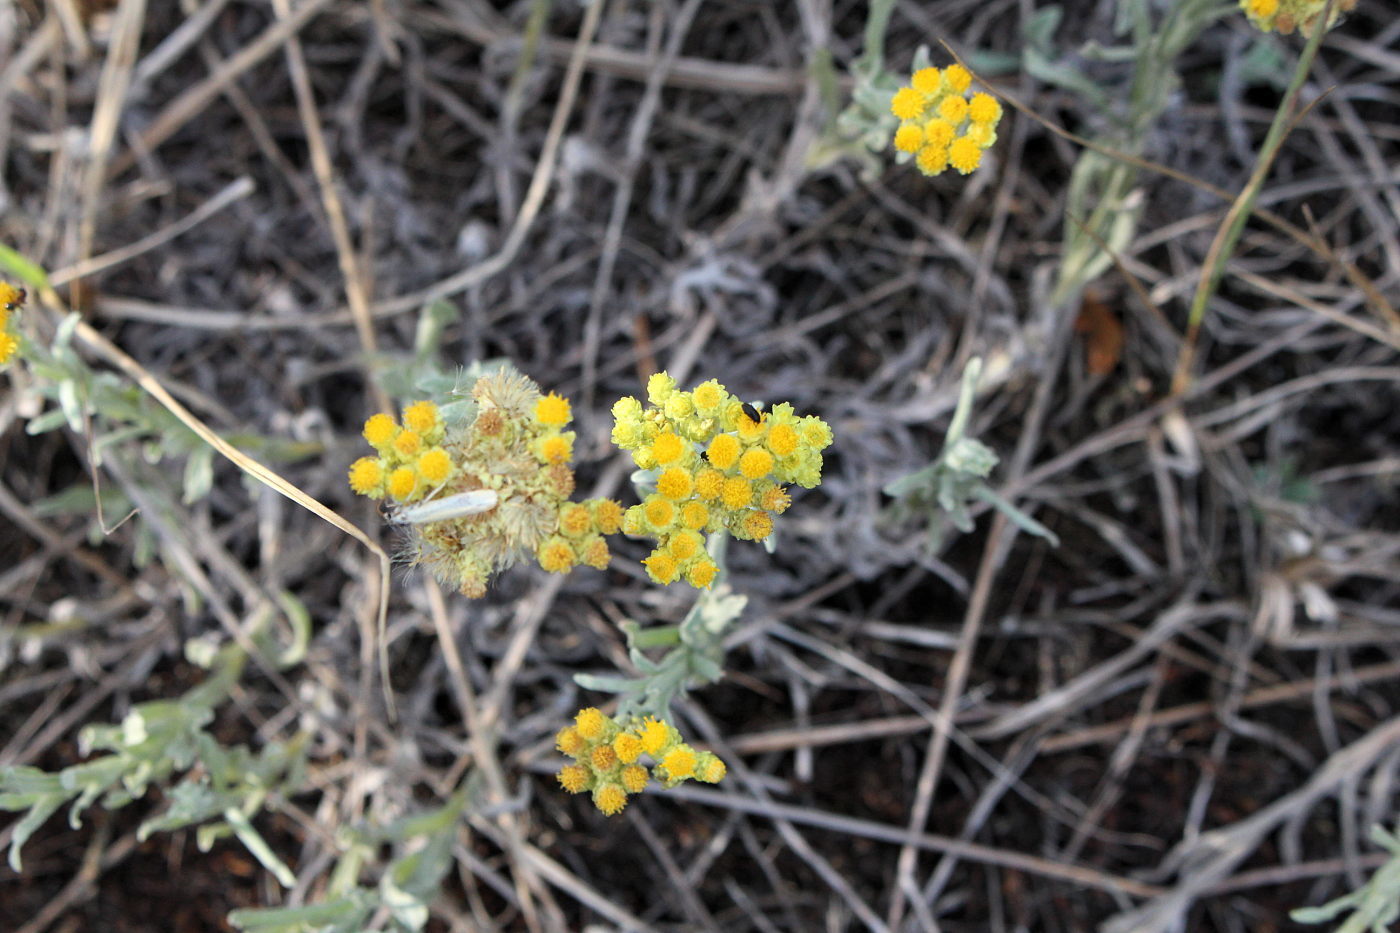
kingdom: Plantae
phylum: Tracheophyta
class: Magnoliopsida
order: Asterales
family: Asteraceae
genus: Helichrysum
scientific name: Helichrysum arenarium
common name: Strawflower
